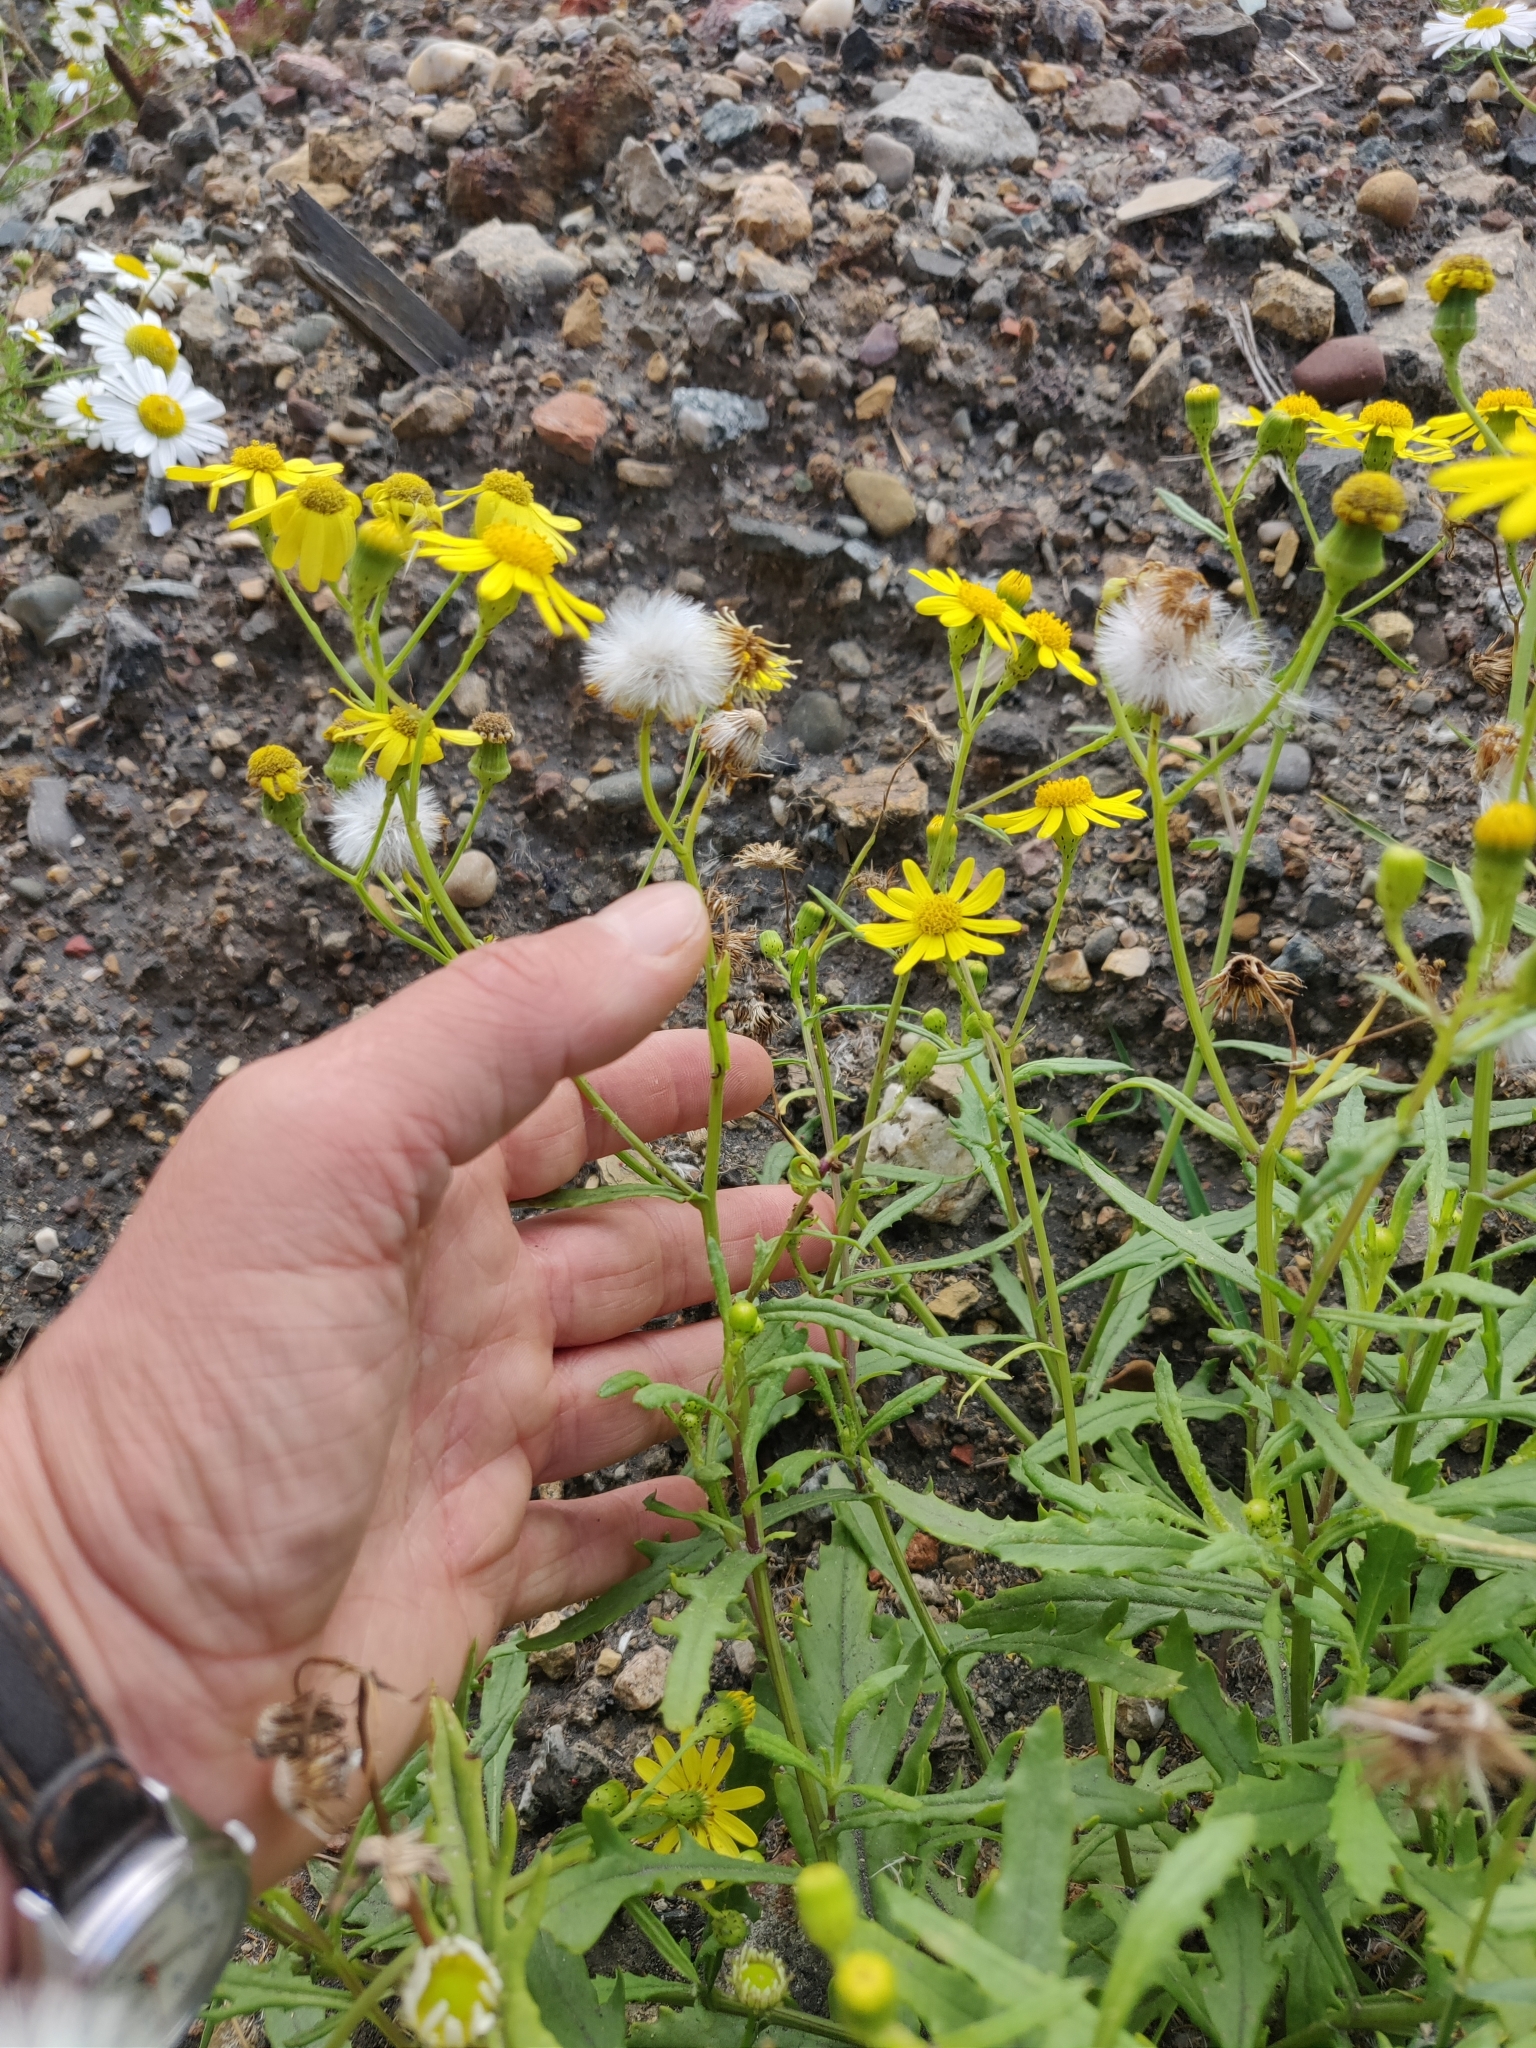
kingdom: Plantae
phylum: Tracheophyta
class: Magnoliopsida
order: Asterales
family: Asteraceae
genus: Senecio
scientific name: Senecio squalidus
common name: Oxford ragwort
